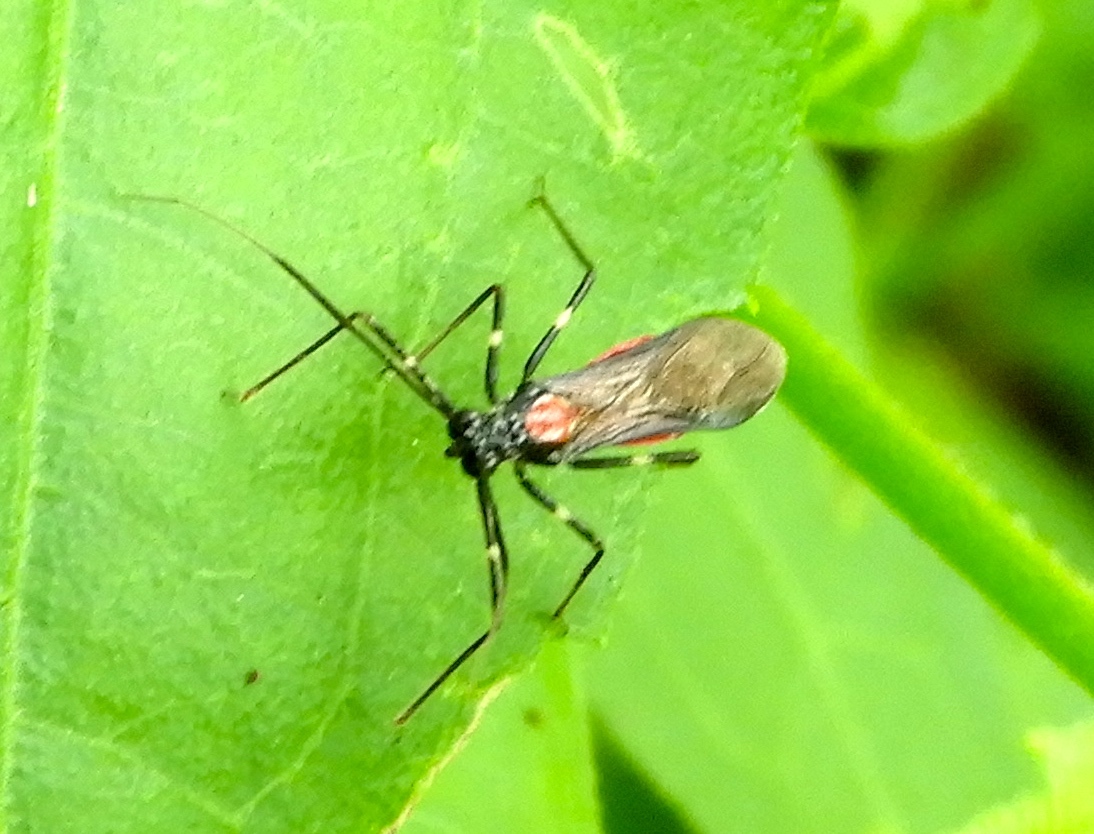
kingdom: Animalia
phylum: Arthropoda
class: Insecta
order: Hemiptera
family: Reduviidae
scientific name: Reduviidae
